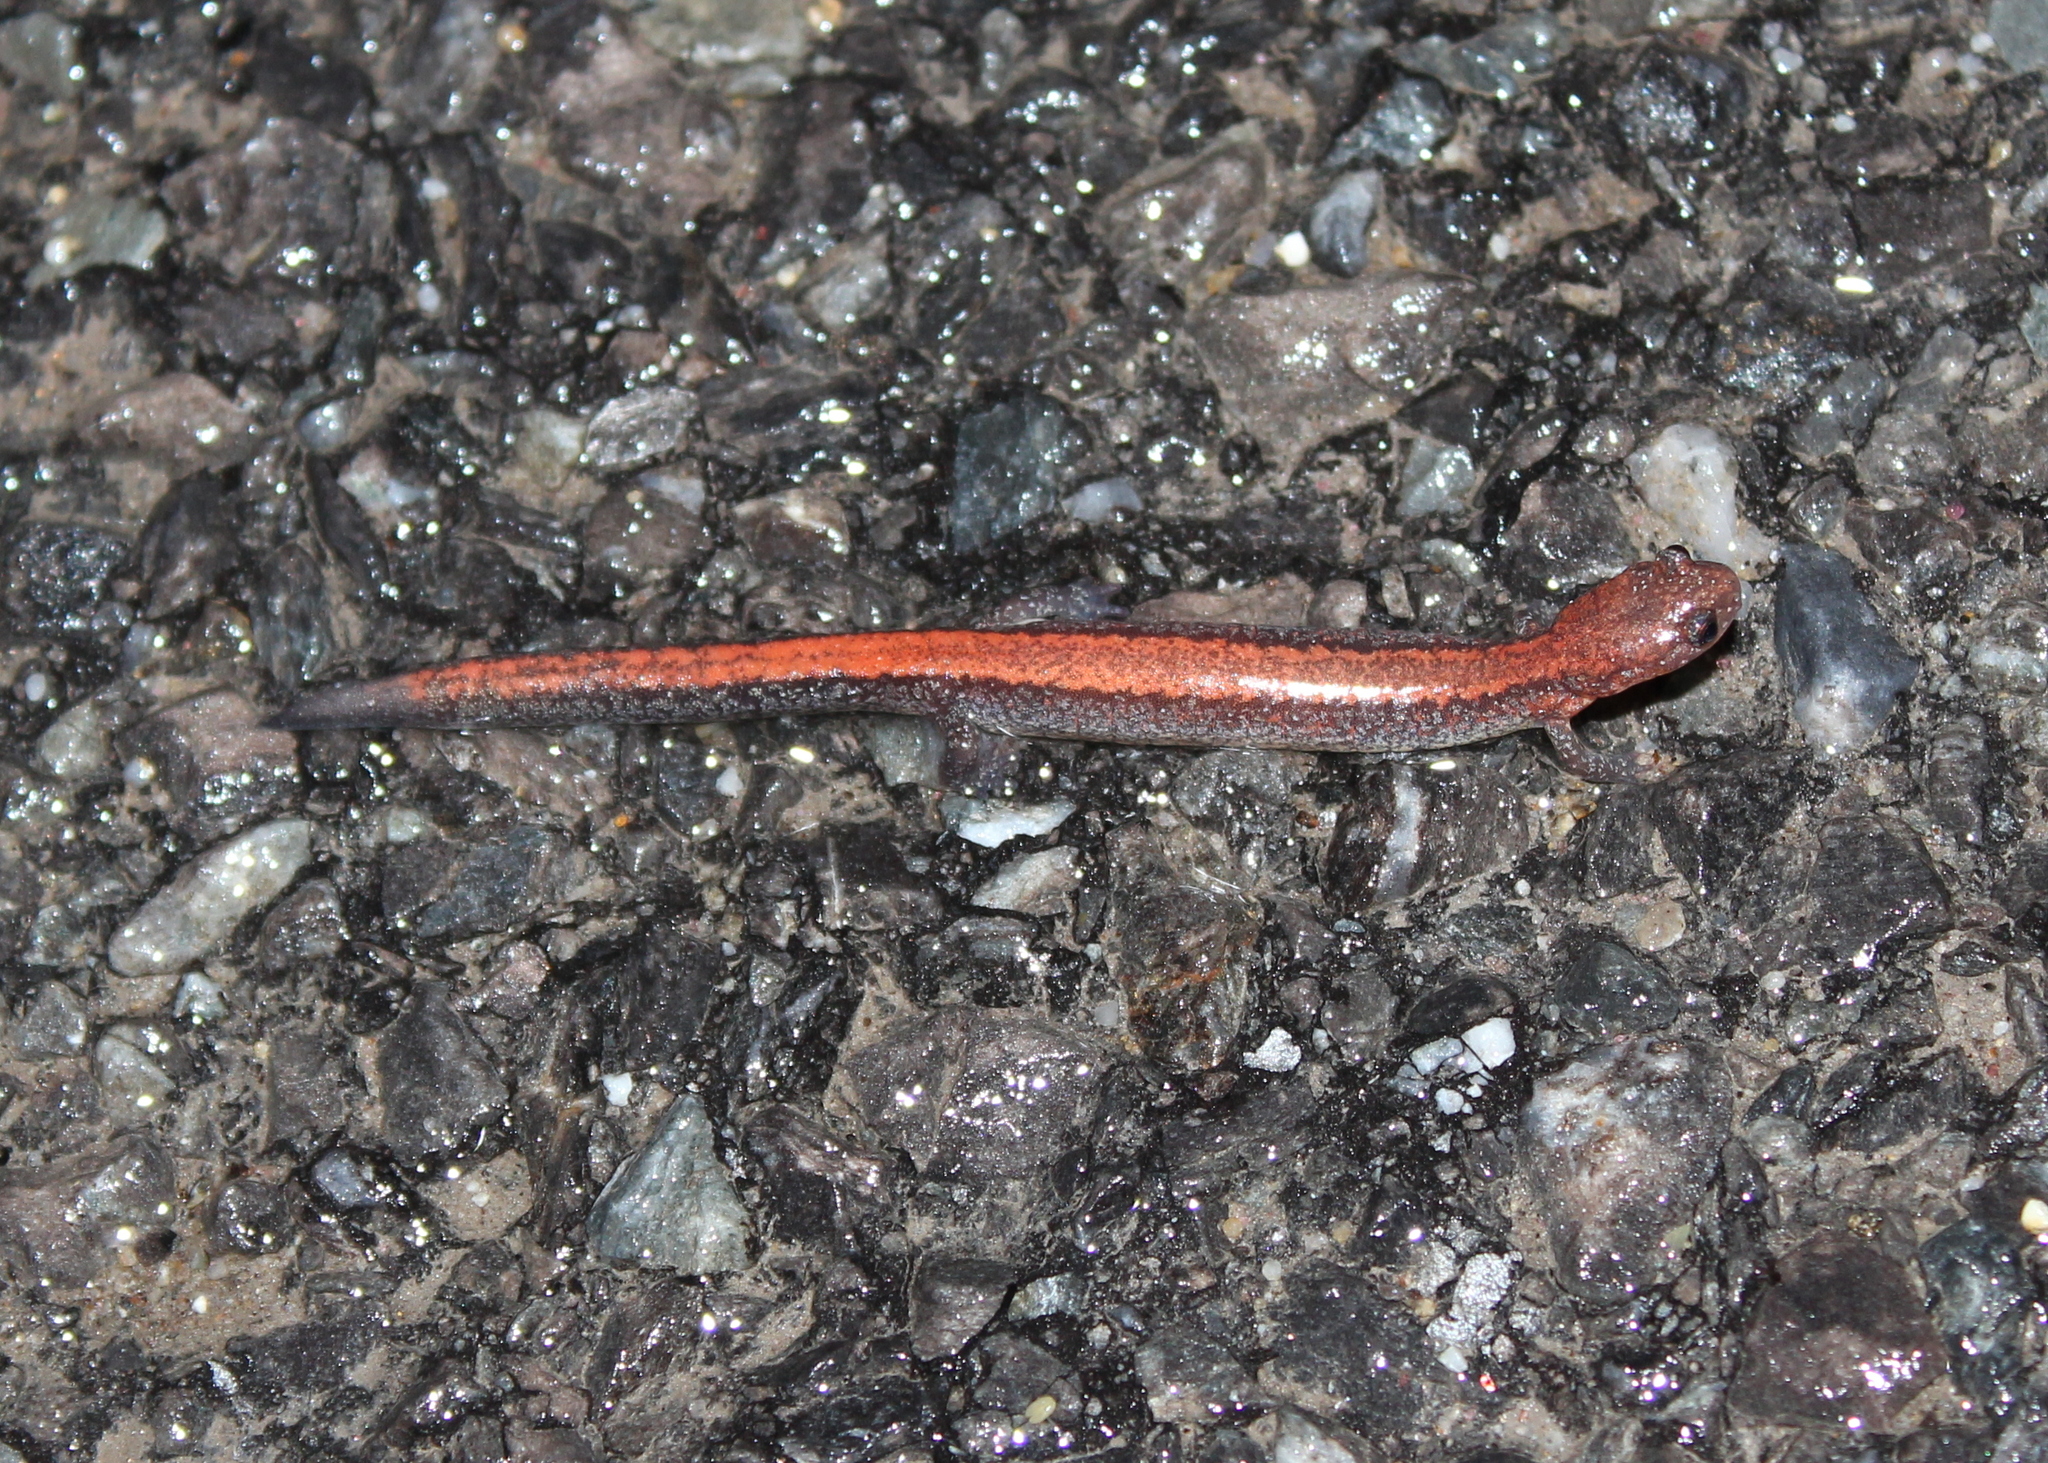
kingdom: Animalia
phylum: Chordata
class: Amphibia
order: Caudata
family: Plethodontidae
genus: Plethodon
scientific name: Plethodon cinereus
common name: Redback salamander
